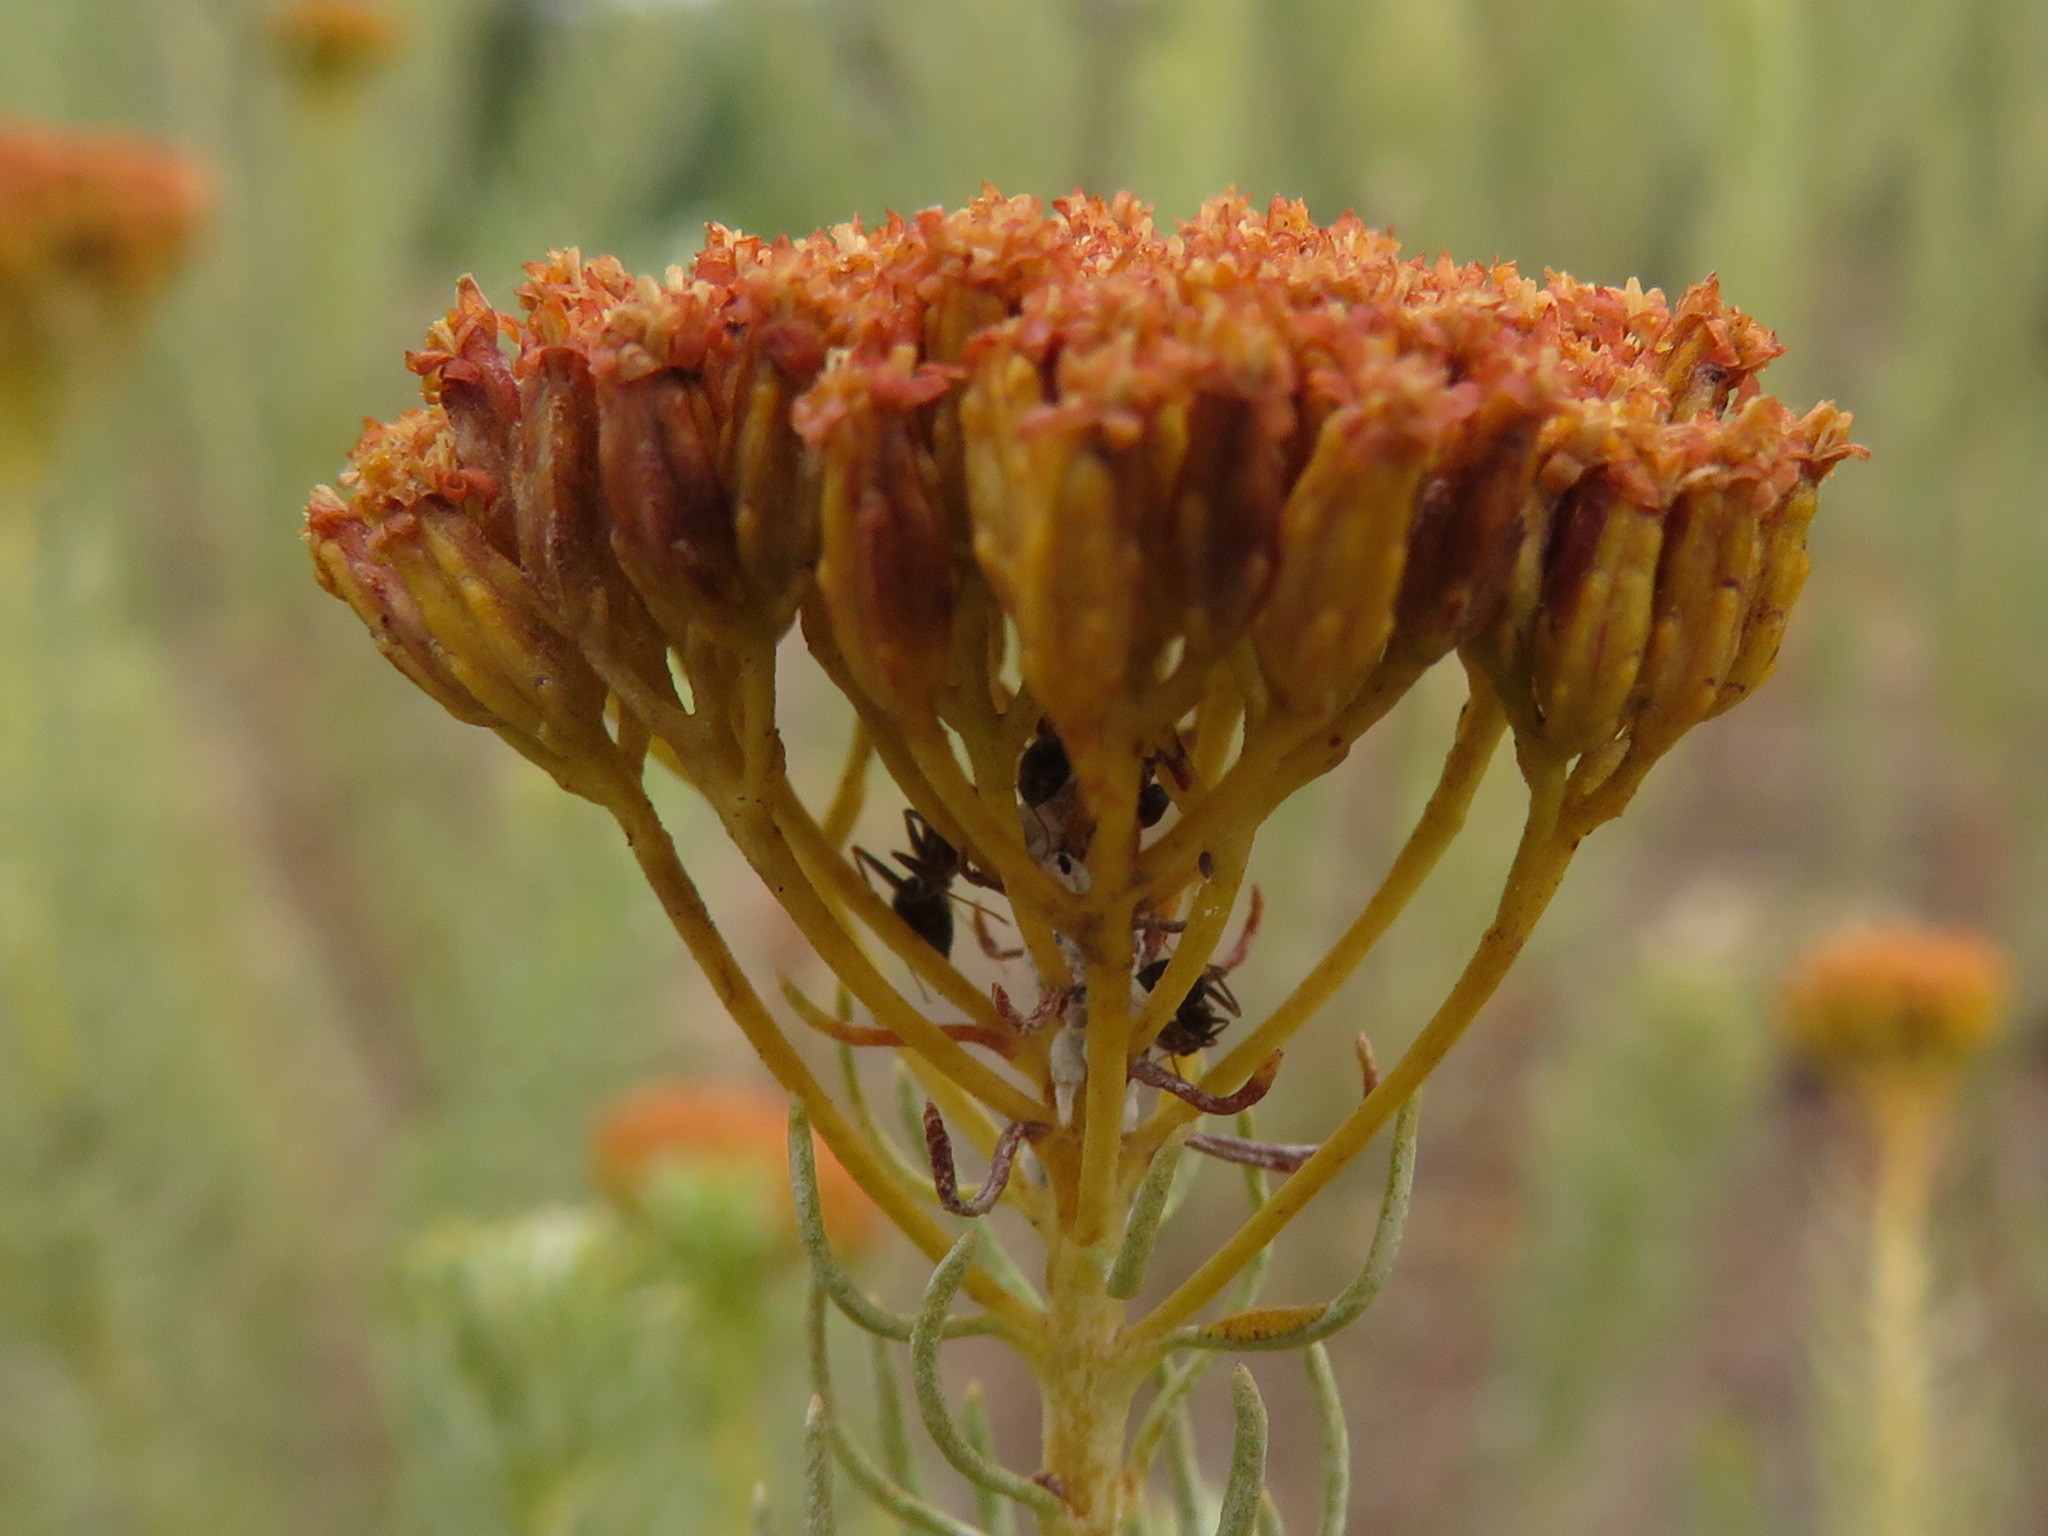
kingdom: Animalia
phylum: Arthropoda
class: Insecta
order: Hymenoptera
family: Formicidae
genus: Anoplolepis
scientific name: Anoplolepis steingroeveri
